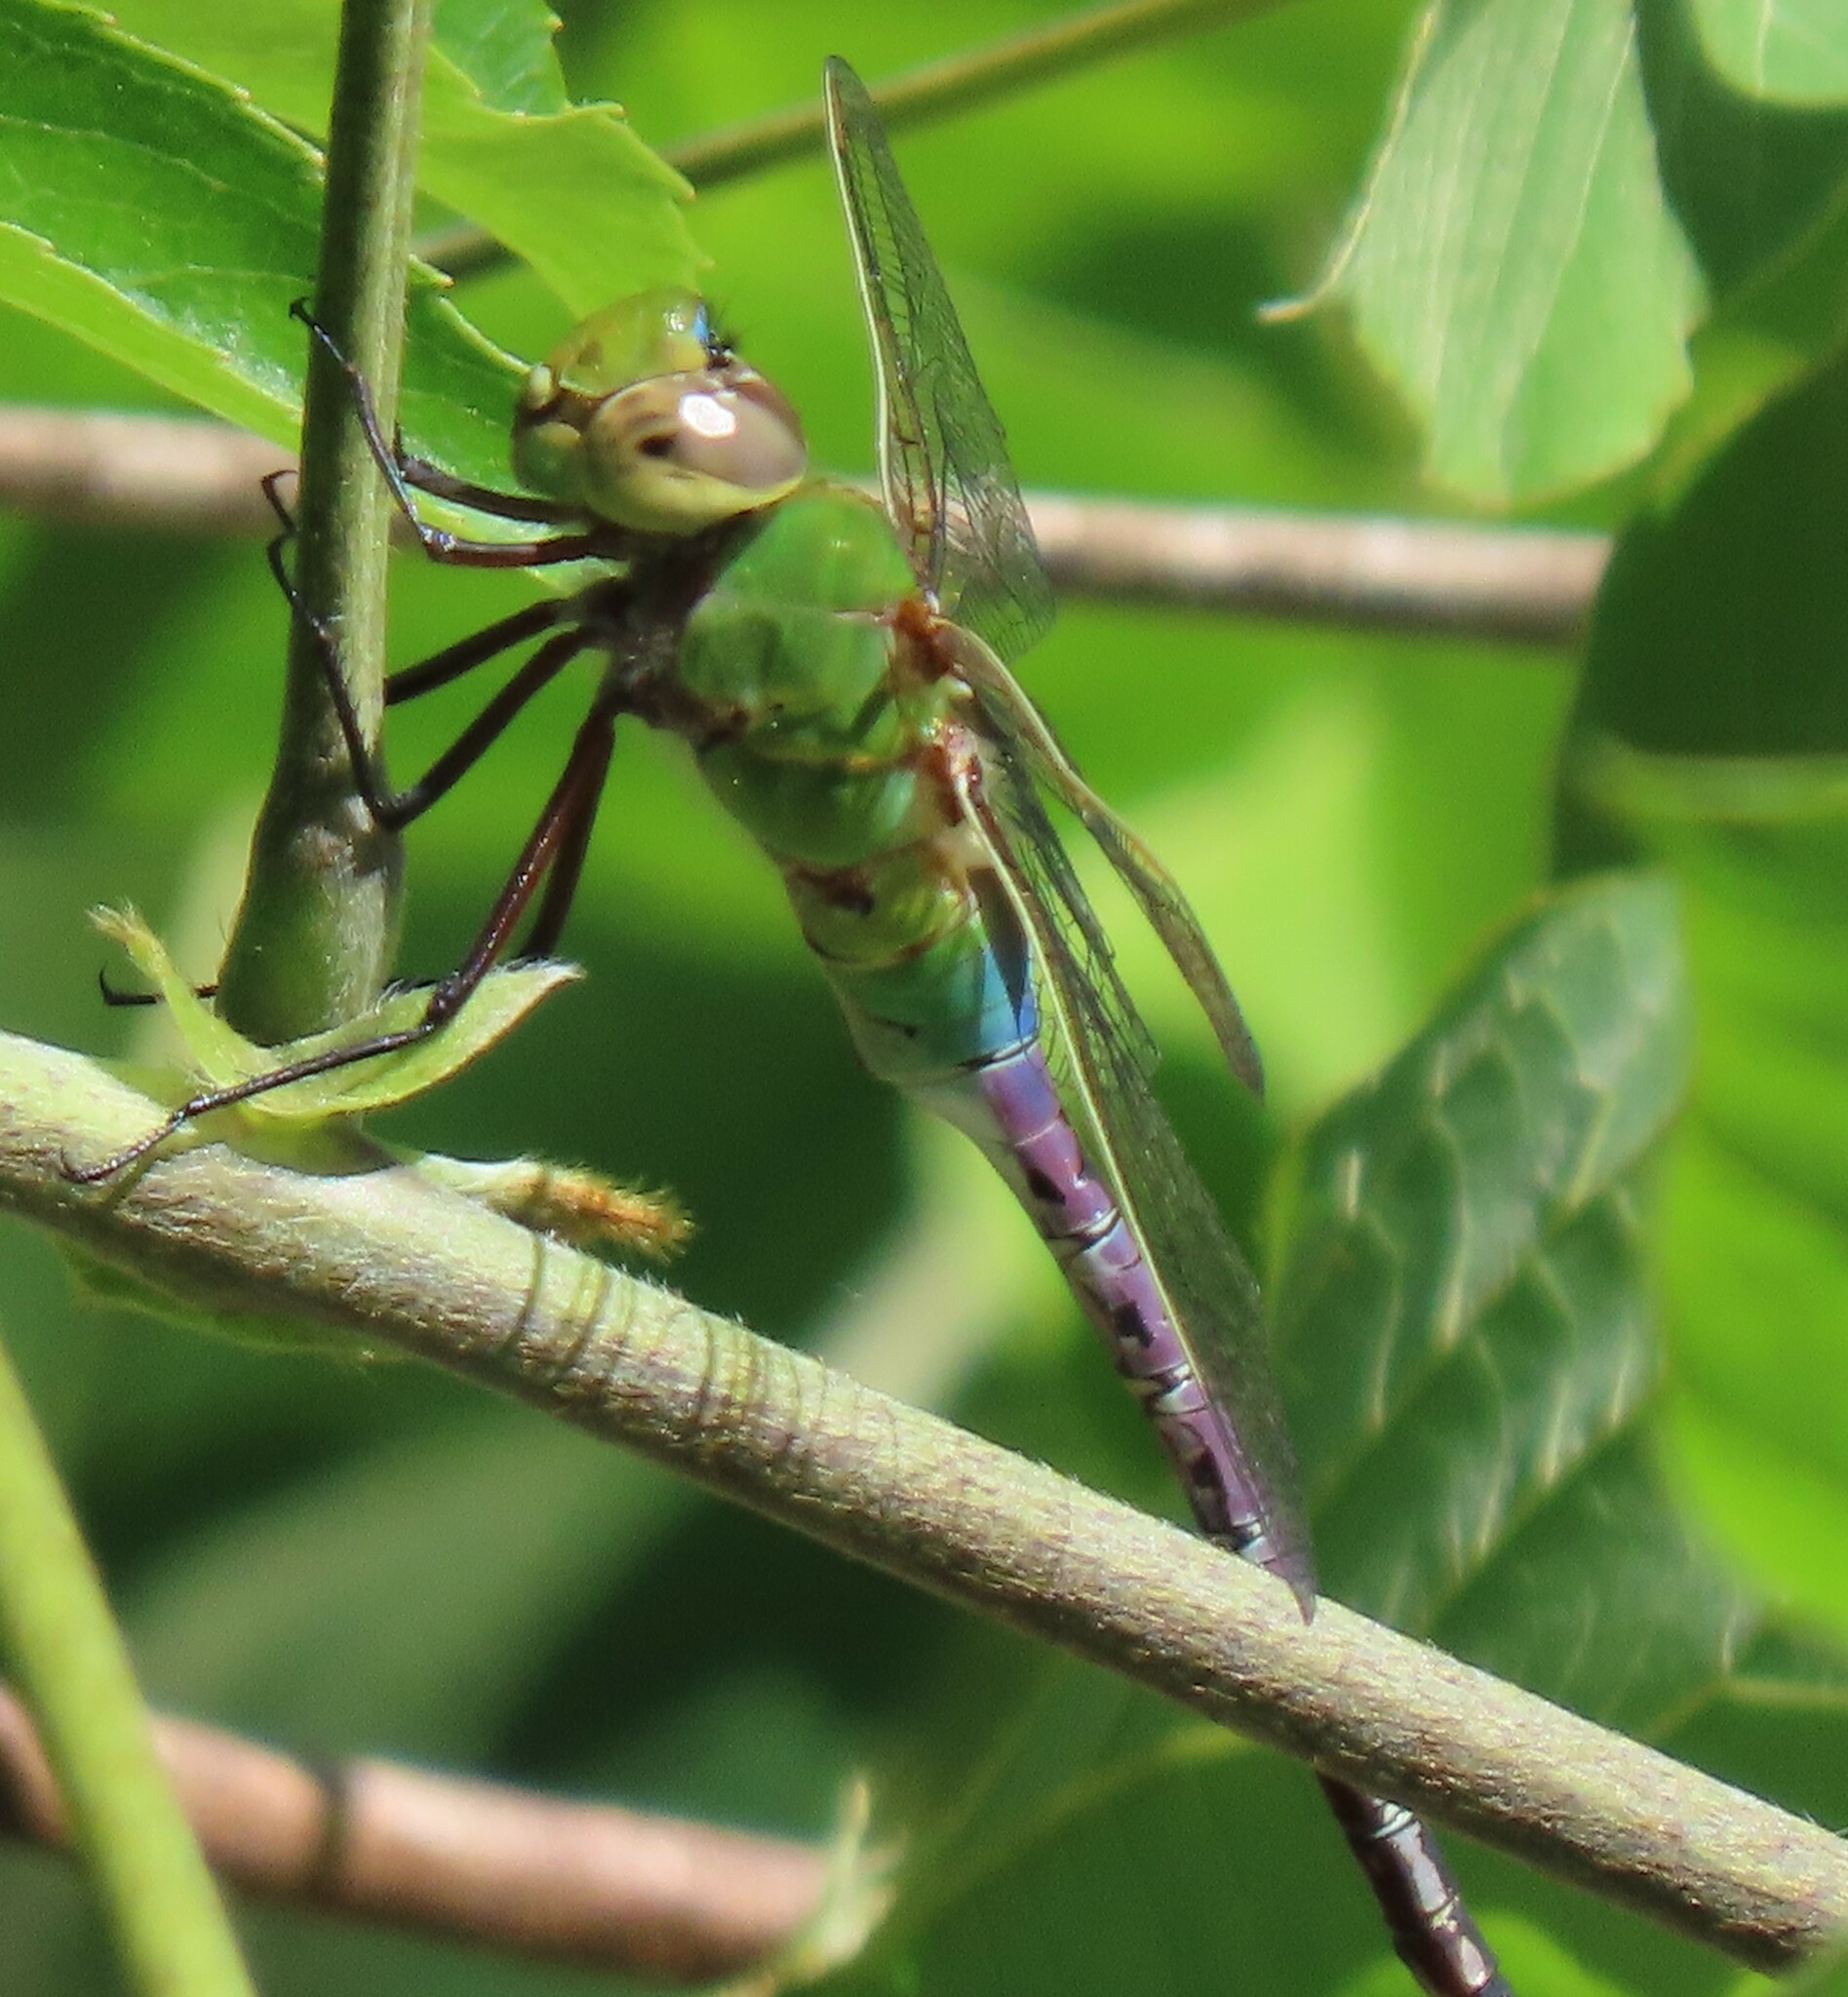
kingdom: Animalia
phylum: Arthropoda
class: Insecta
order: Odonata
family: Aeshnidae
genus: Anax
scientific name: Anax junius
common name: Common green darner
